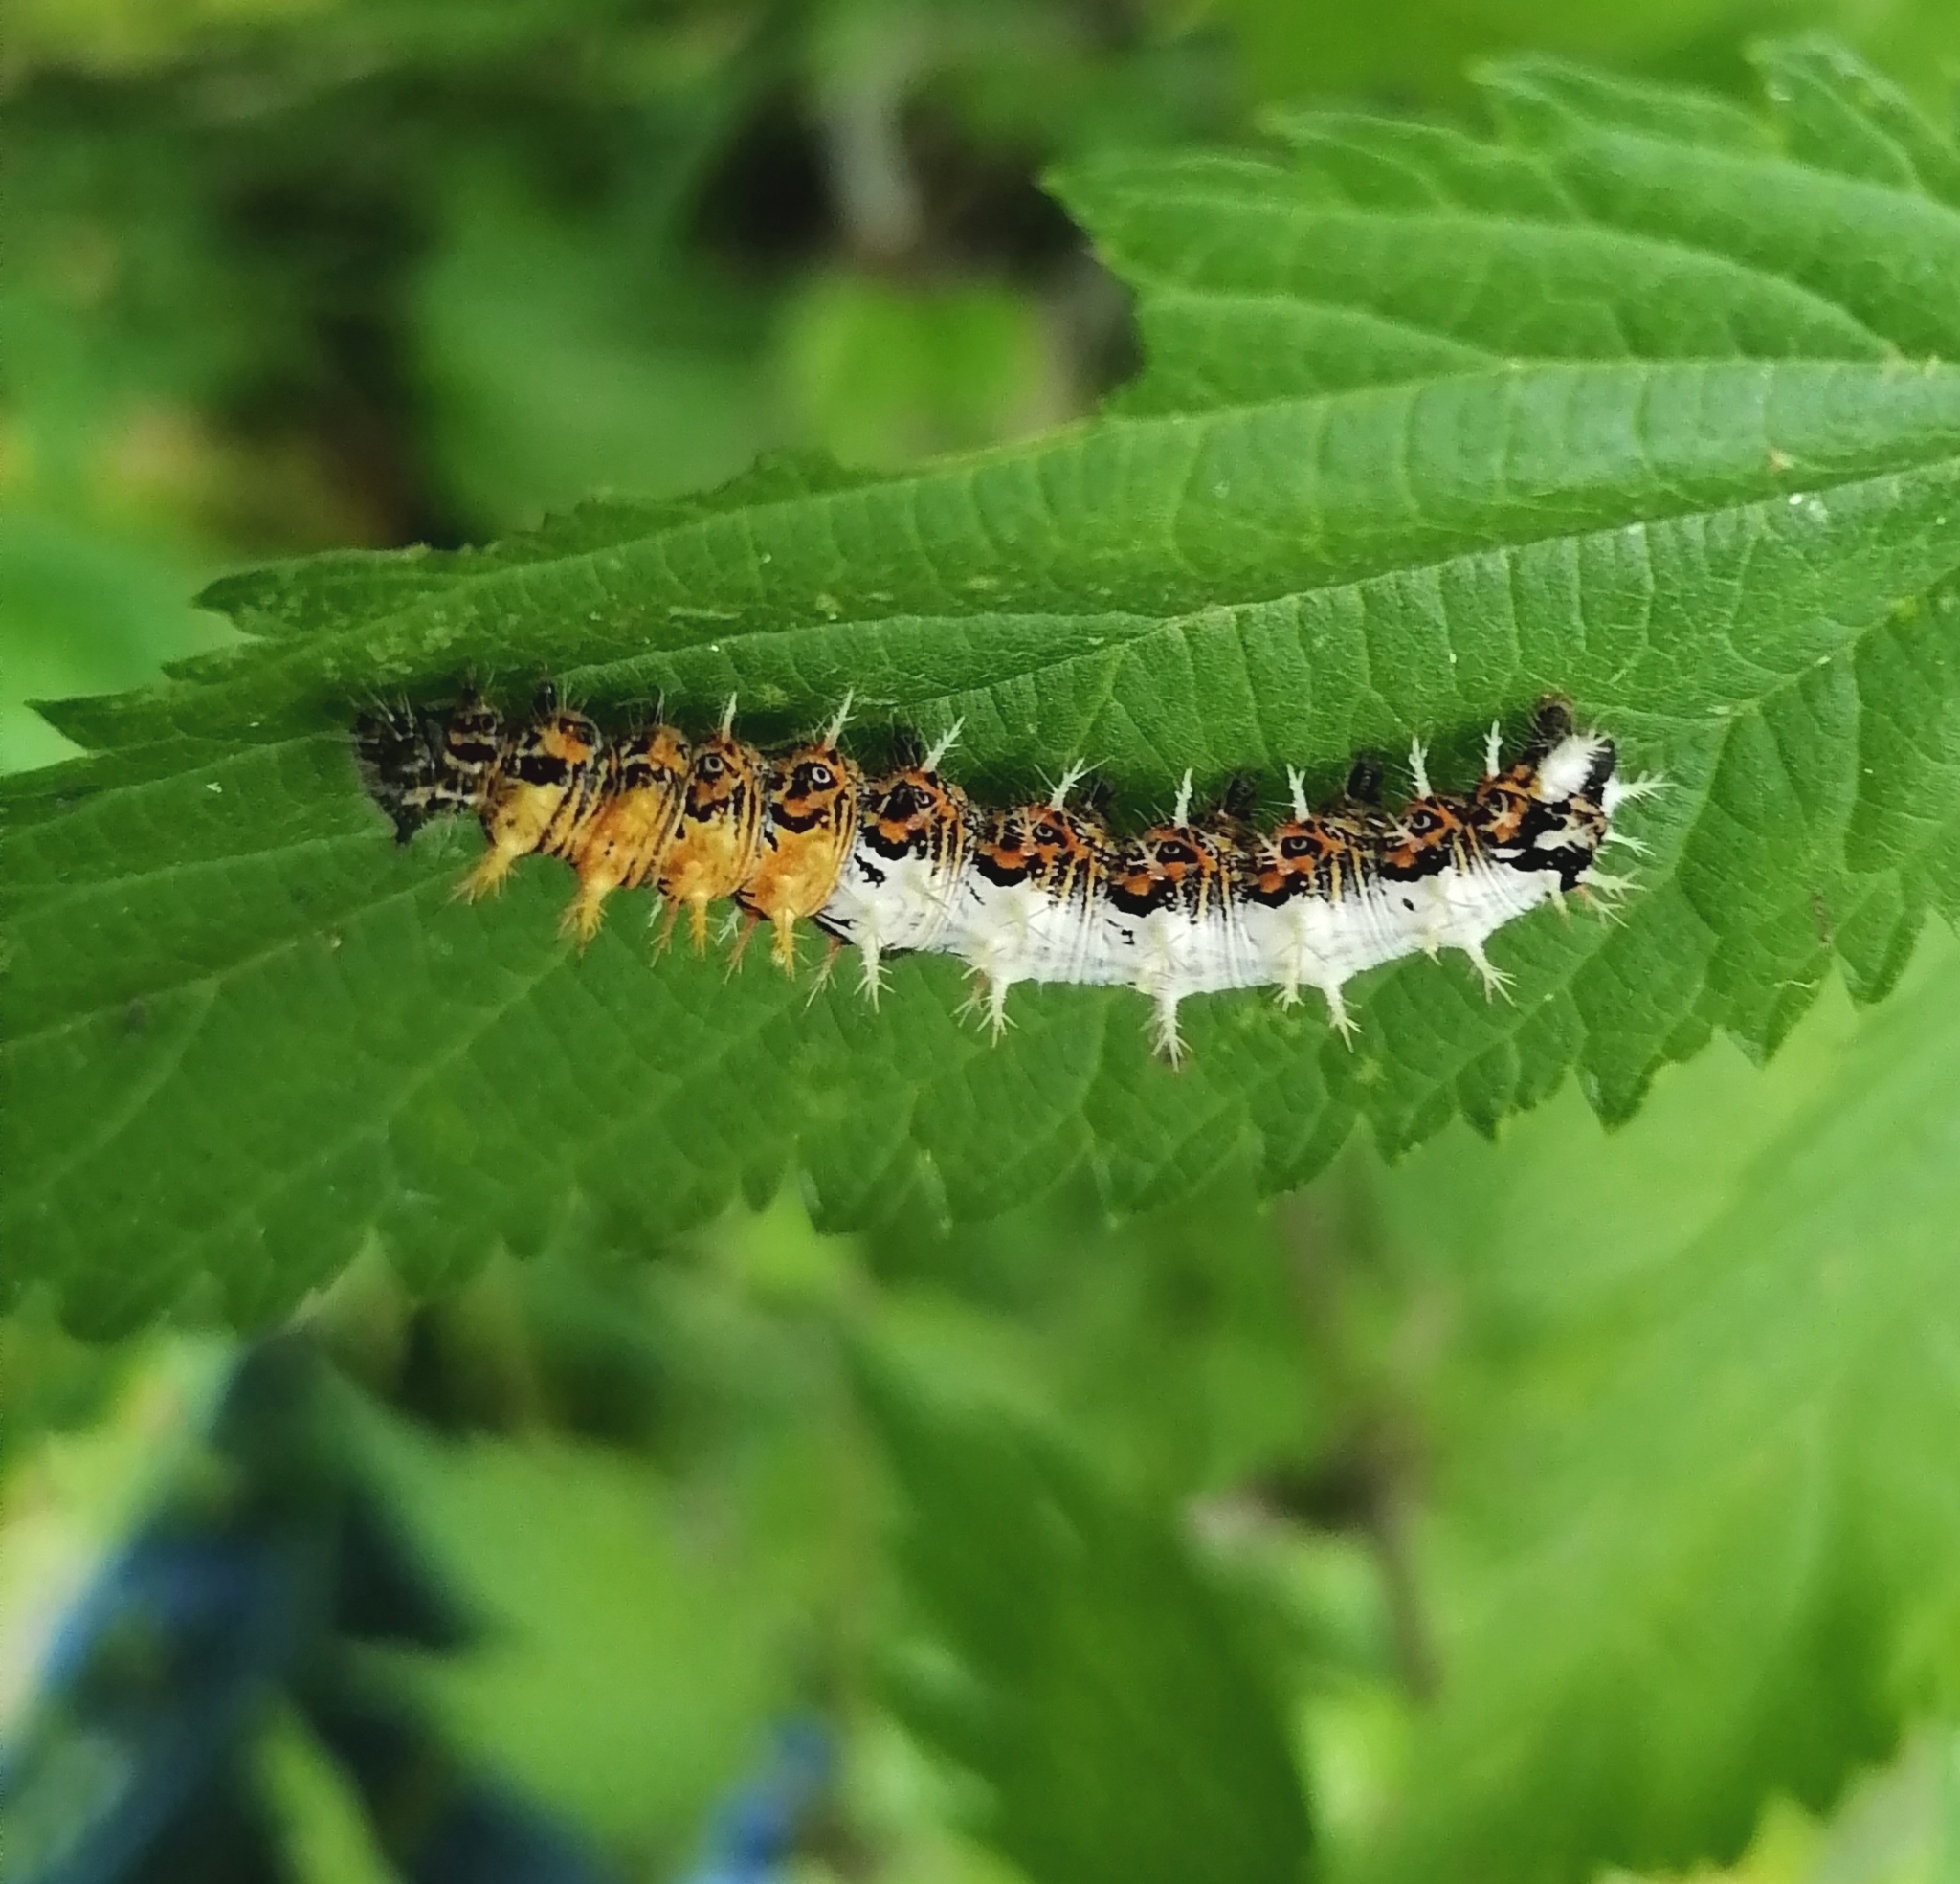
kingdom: Animalia
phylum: Arthropoda
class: Insecta
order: Lepidoptera
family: Nymphalidae
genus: Polygonia
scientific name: Polygonia c-album
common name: Comma
